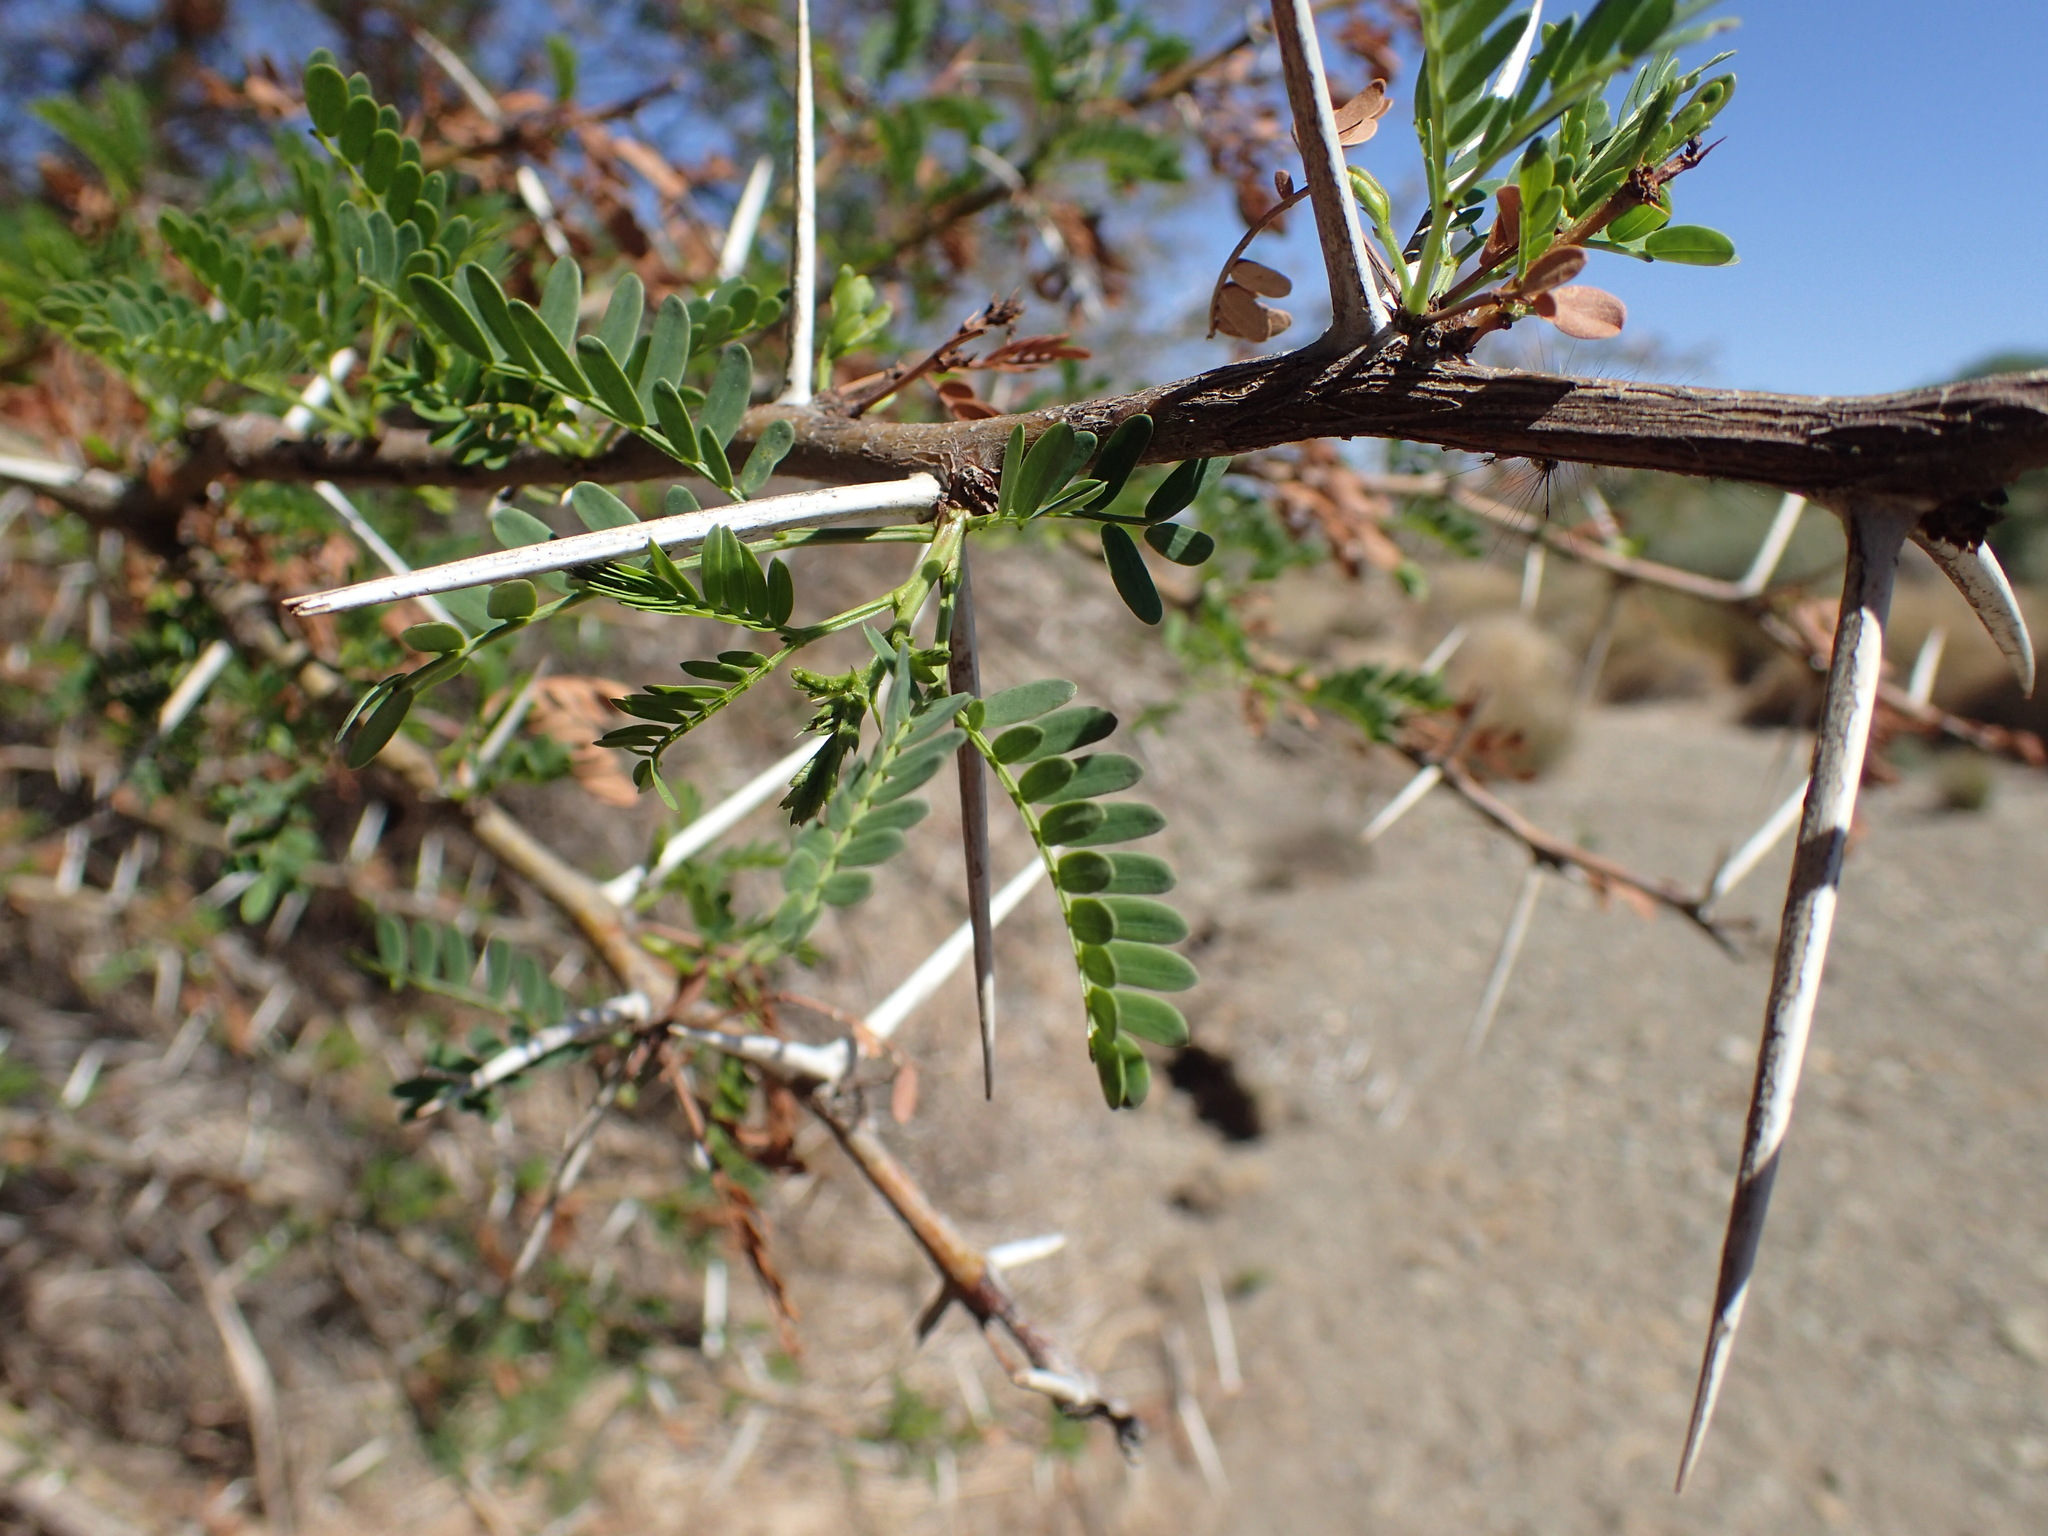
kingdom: Plantae
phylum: Tracheophyta
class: Magnoliopsida
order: Fabales
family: Fabaceae
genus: Vachellia
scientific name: Vachellia karroo
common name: Sweet thorn
